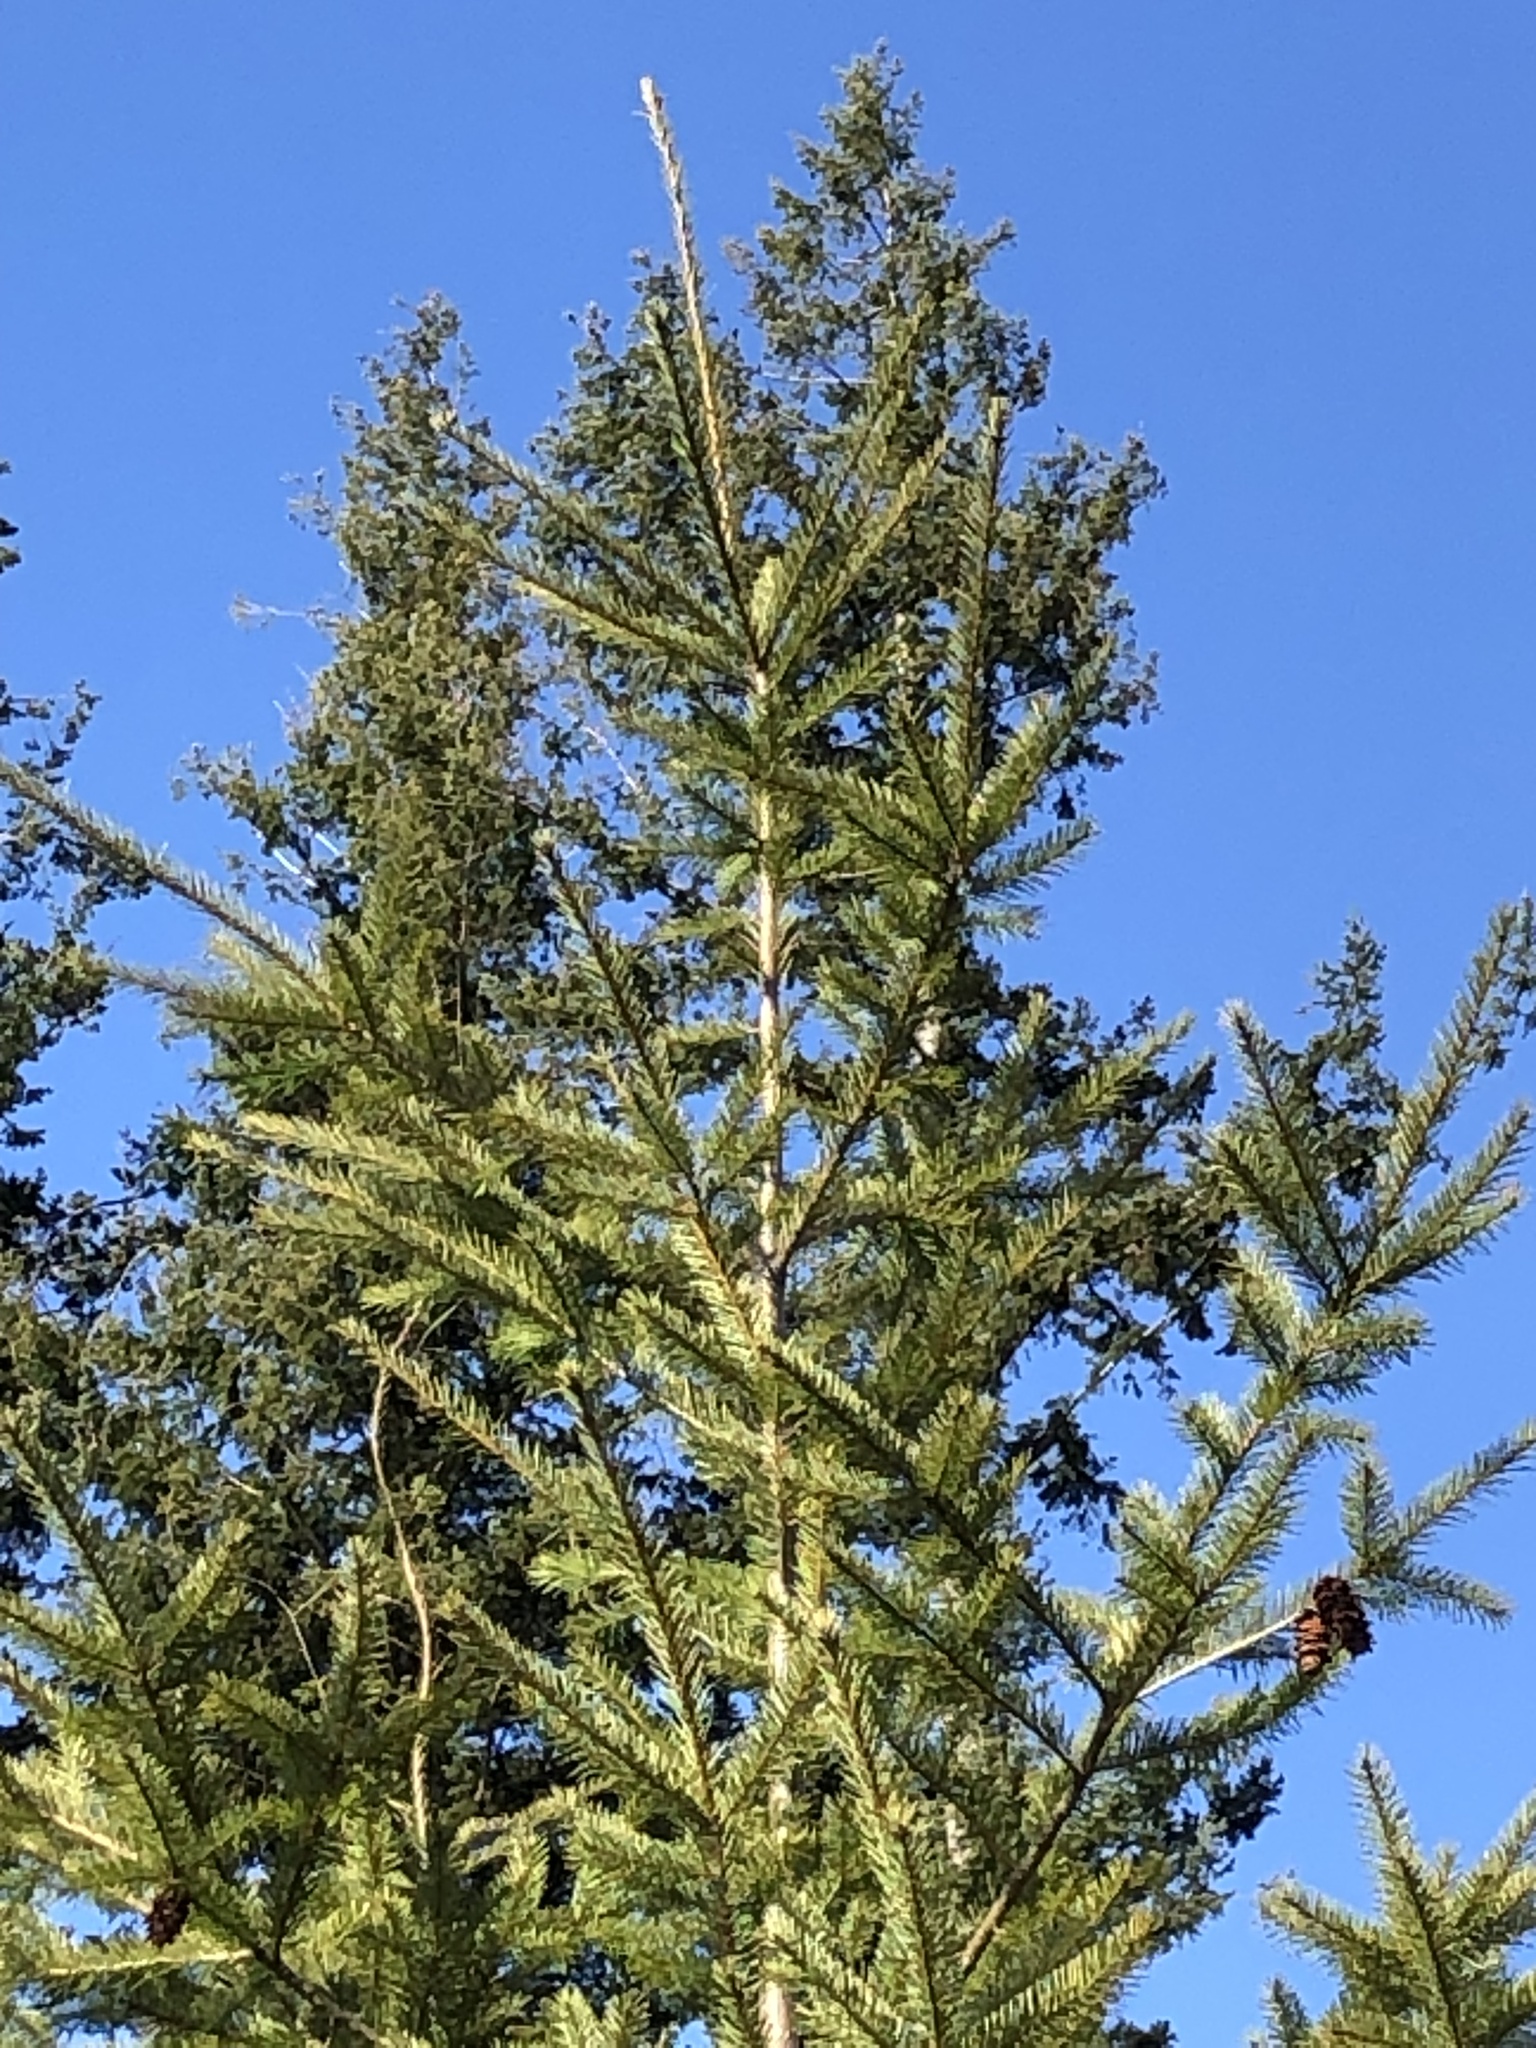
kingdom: Plantae
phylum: Tracheophyta
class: Pinopsida
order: Pinales
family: Pinaceae
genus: Pseudotsuga
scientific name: Pseudotsuga menziesii
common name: Douglas fir
